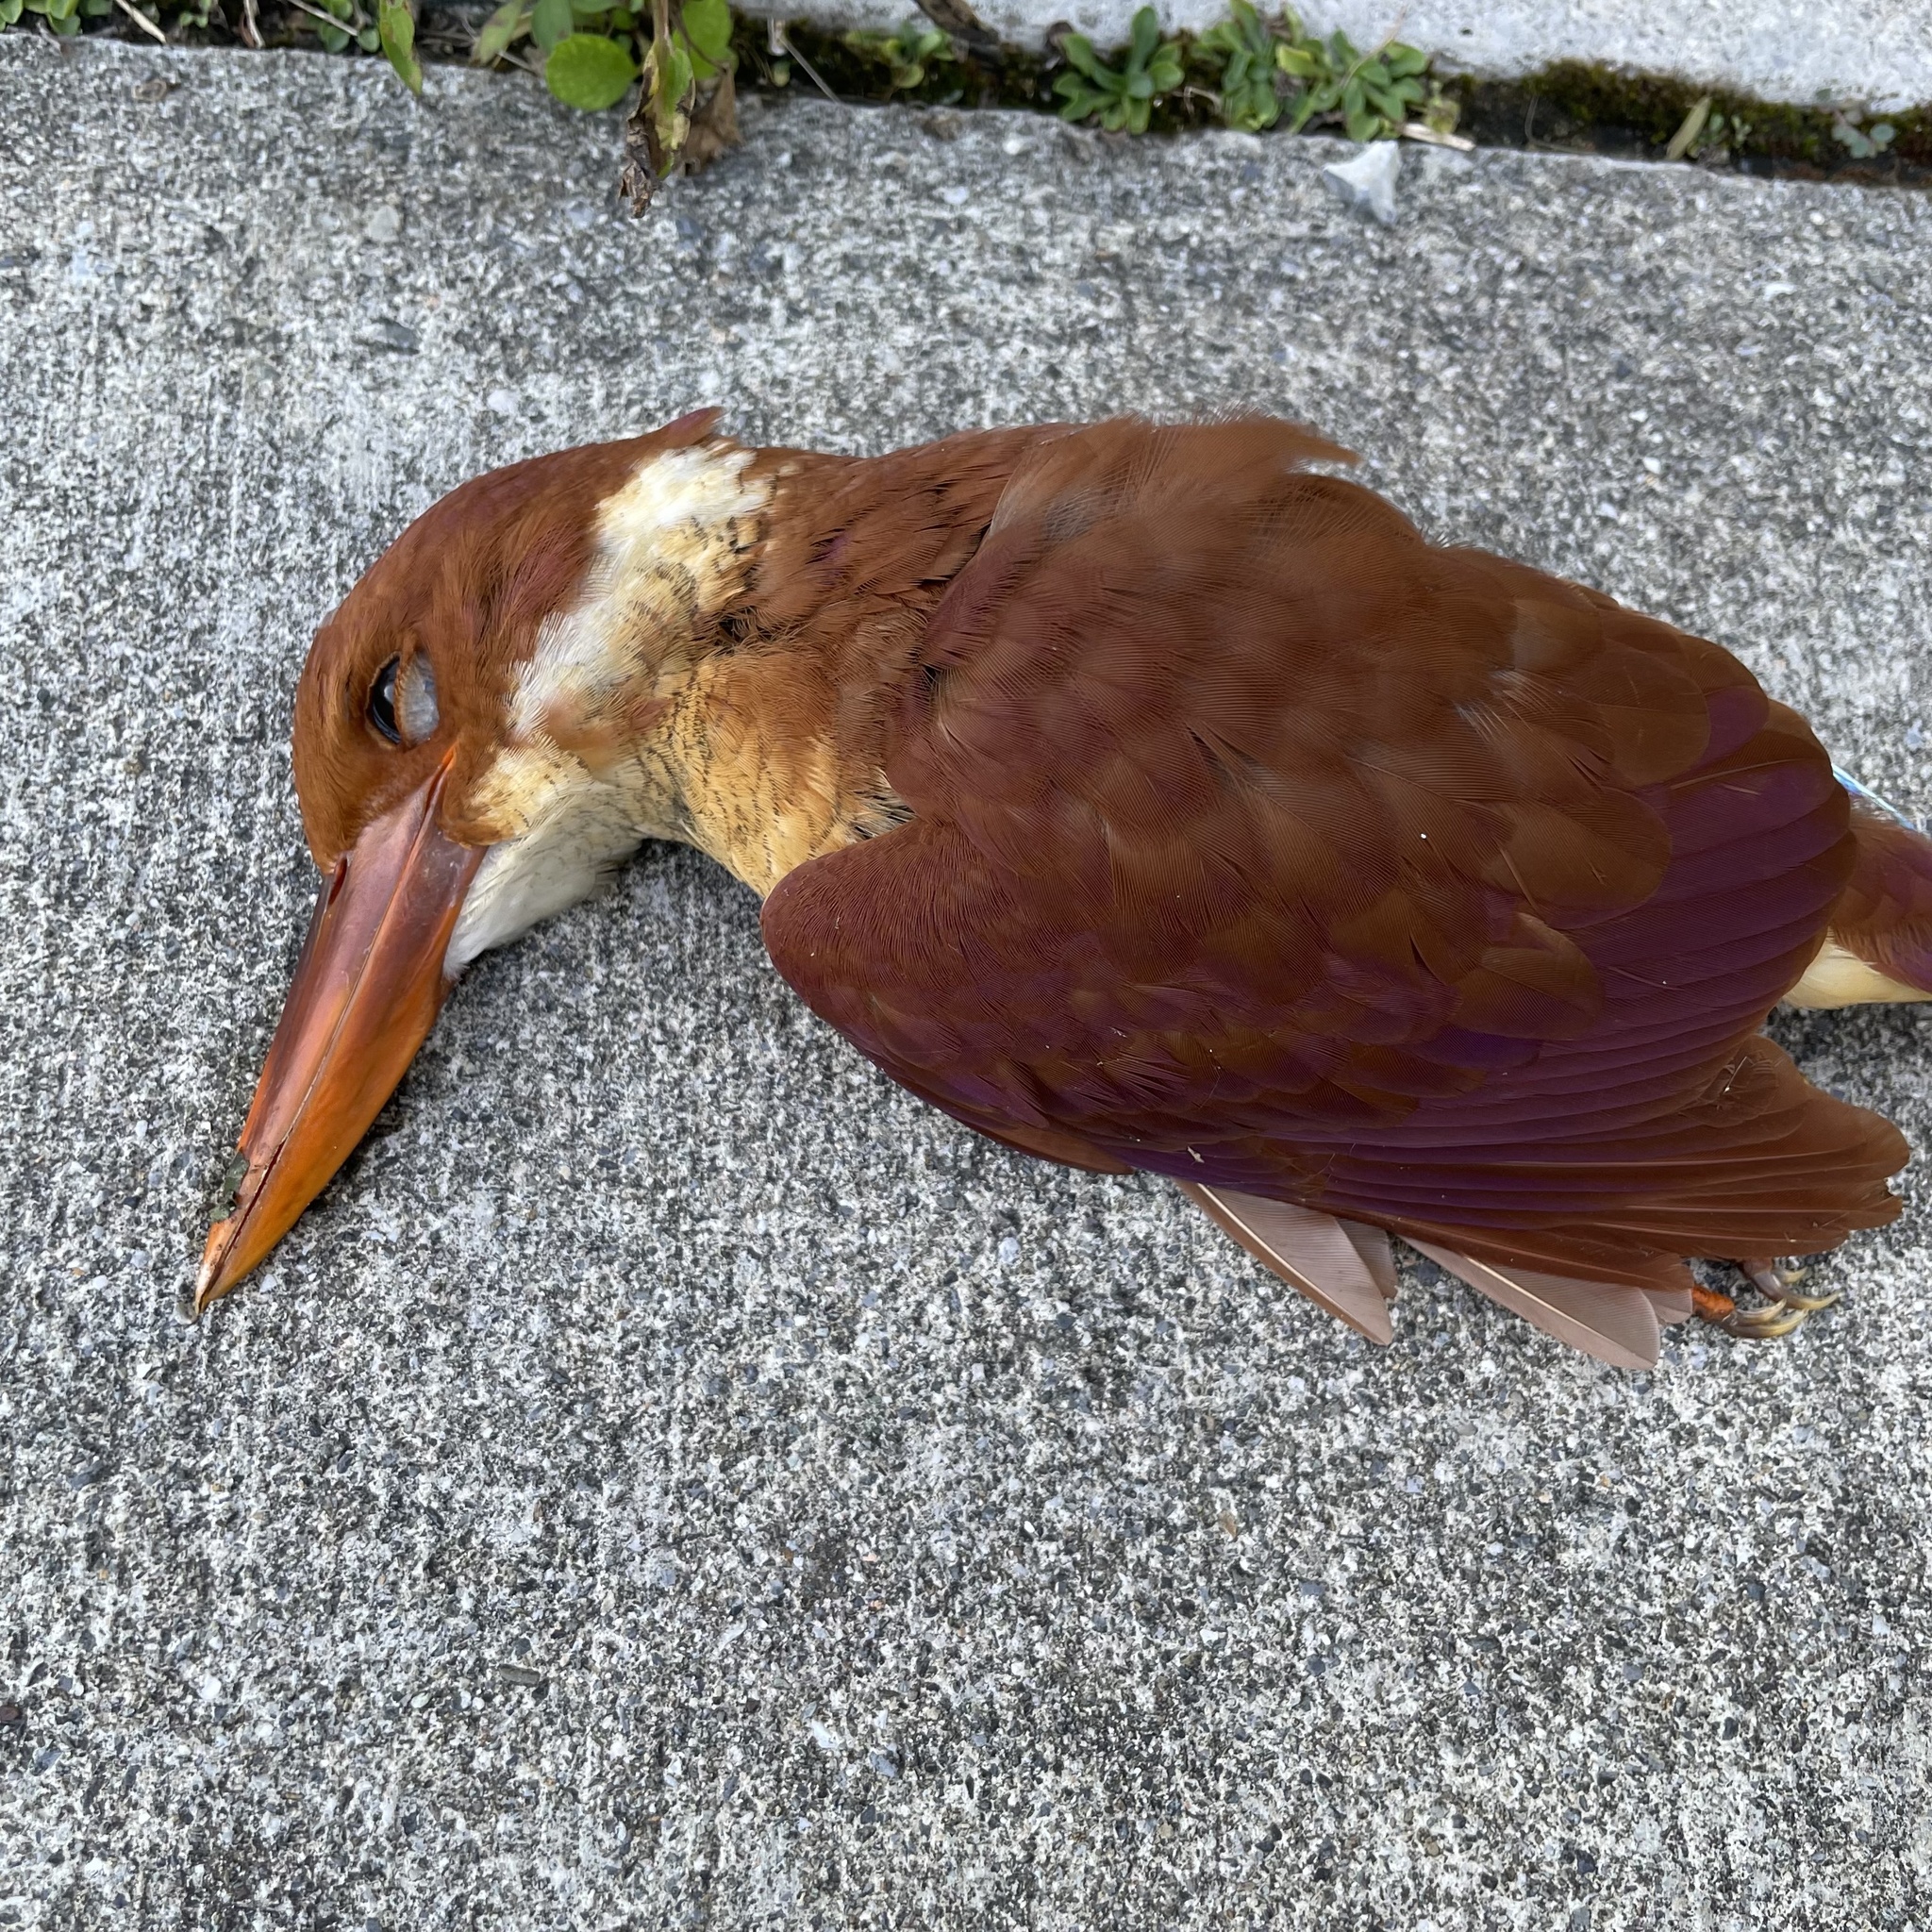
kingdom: Animalia
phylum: Chordata
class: Aves
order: Coraciiformes
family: Alcedinidae
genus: Halcyon
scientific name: Halcyon coromanda
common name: Ruddy kingfisher
